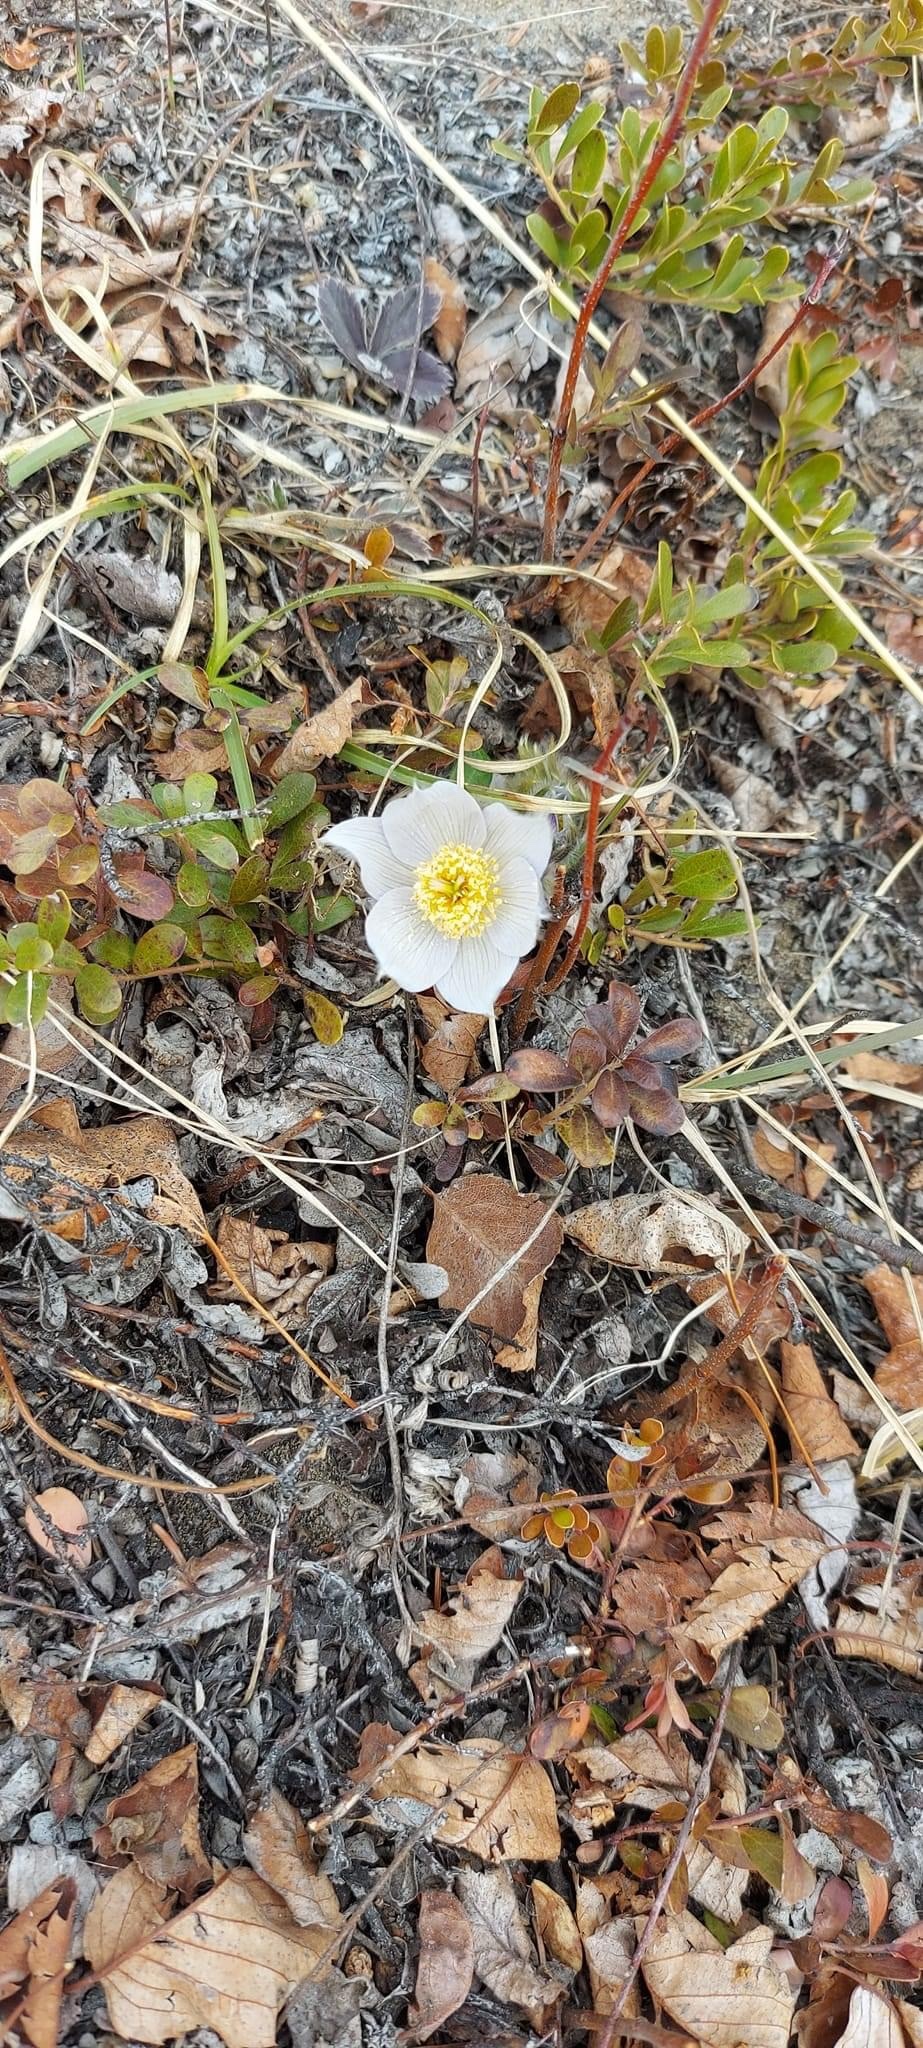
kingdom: Plantae
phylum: Tracheophyta
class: Magnoliopsida
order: Ericales
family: Ericaceae
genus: Arctostaphylos
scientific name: Arctostaphylos uva-ursi
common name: Bearberry
